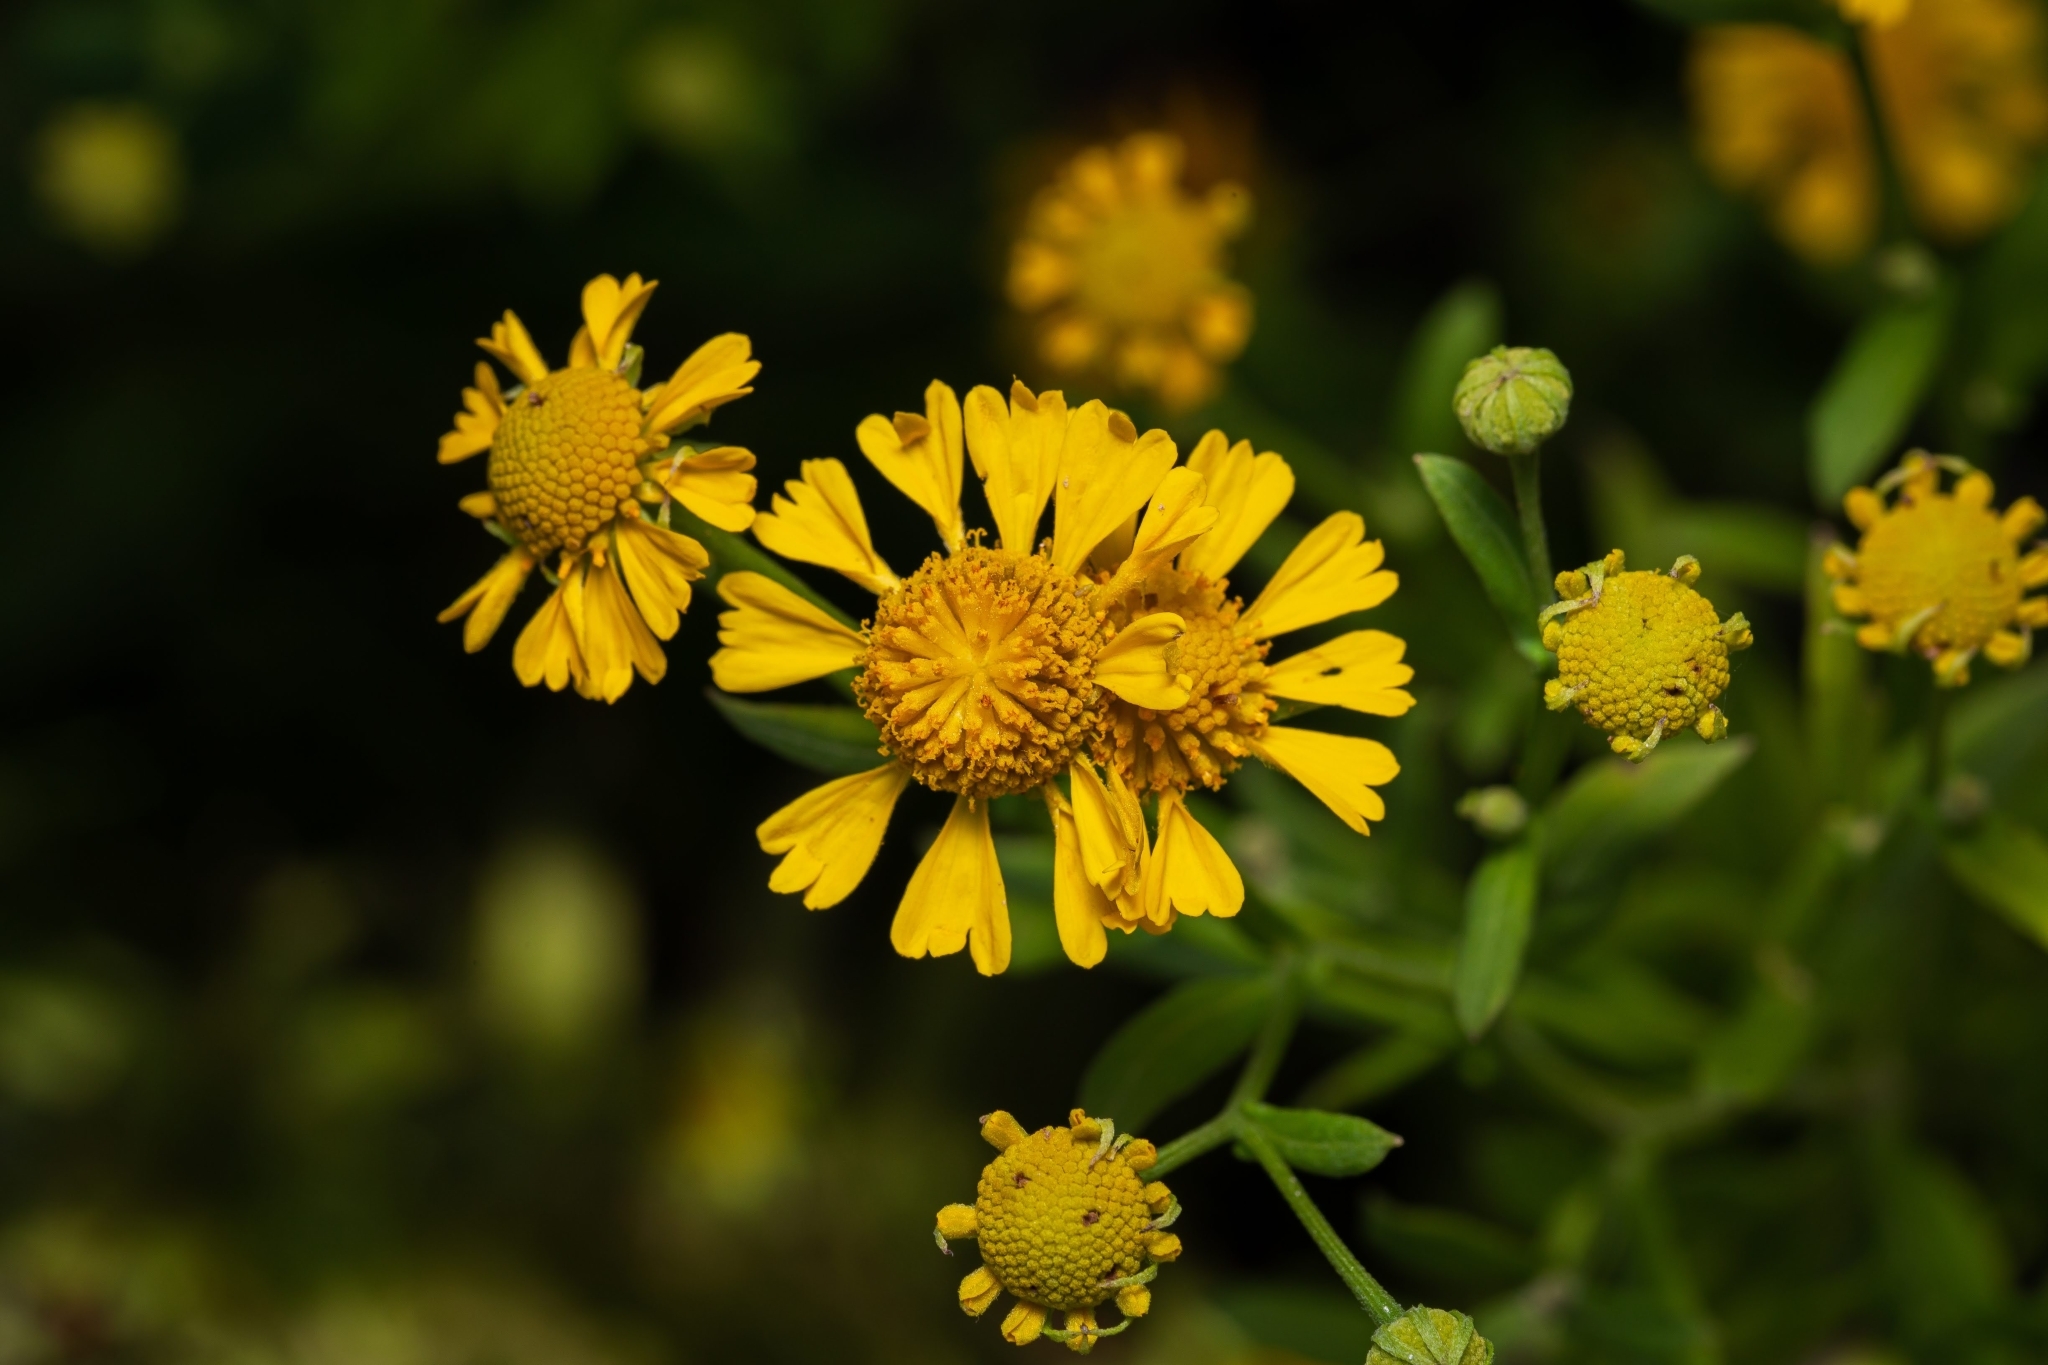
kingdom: Plantae
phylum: Tracheophyta
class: Magnoliopsida
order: Asterales
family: Asteraceae
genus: Helenium
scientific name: Helenium autumnale
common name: Sneezeweed
